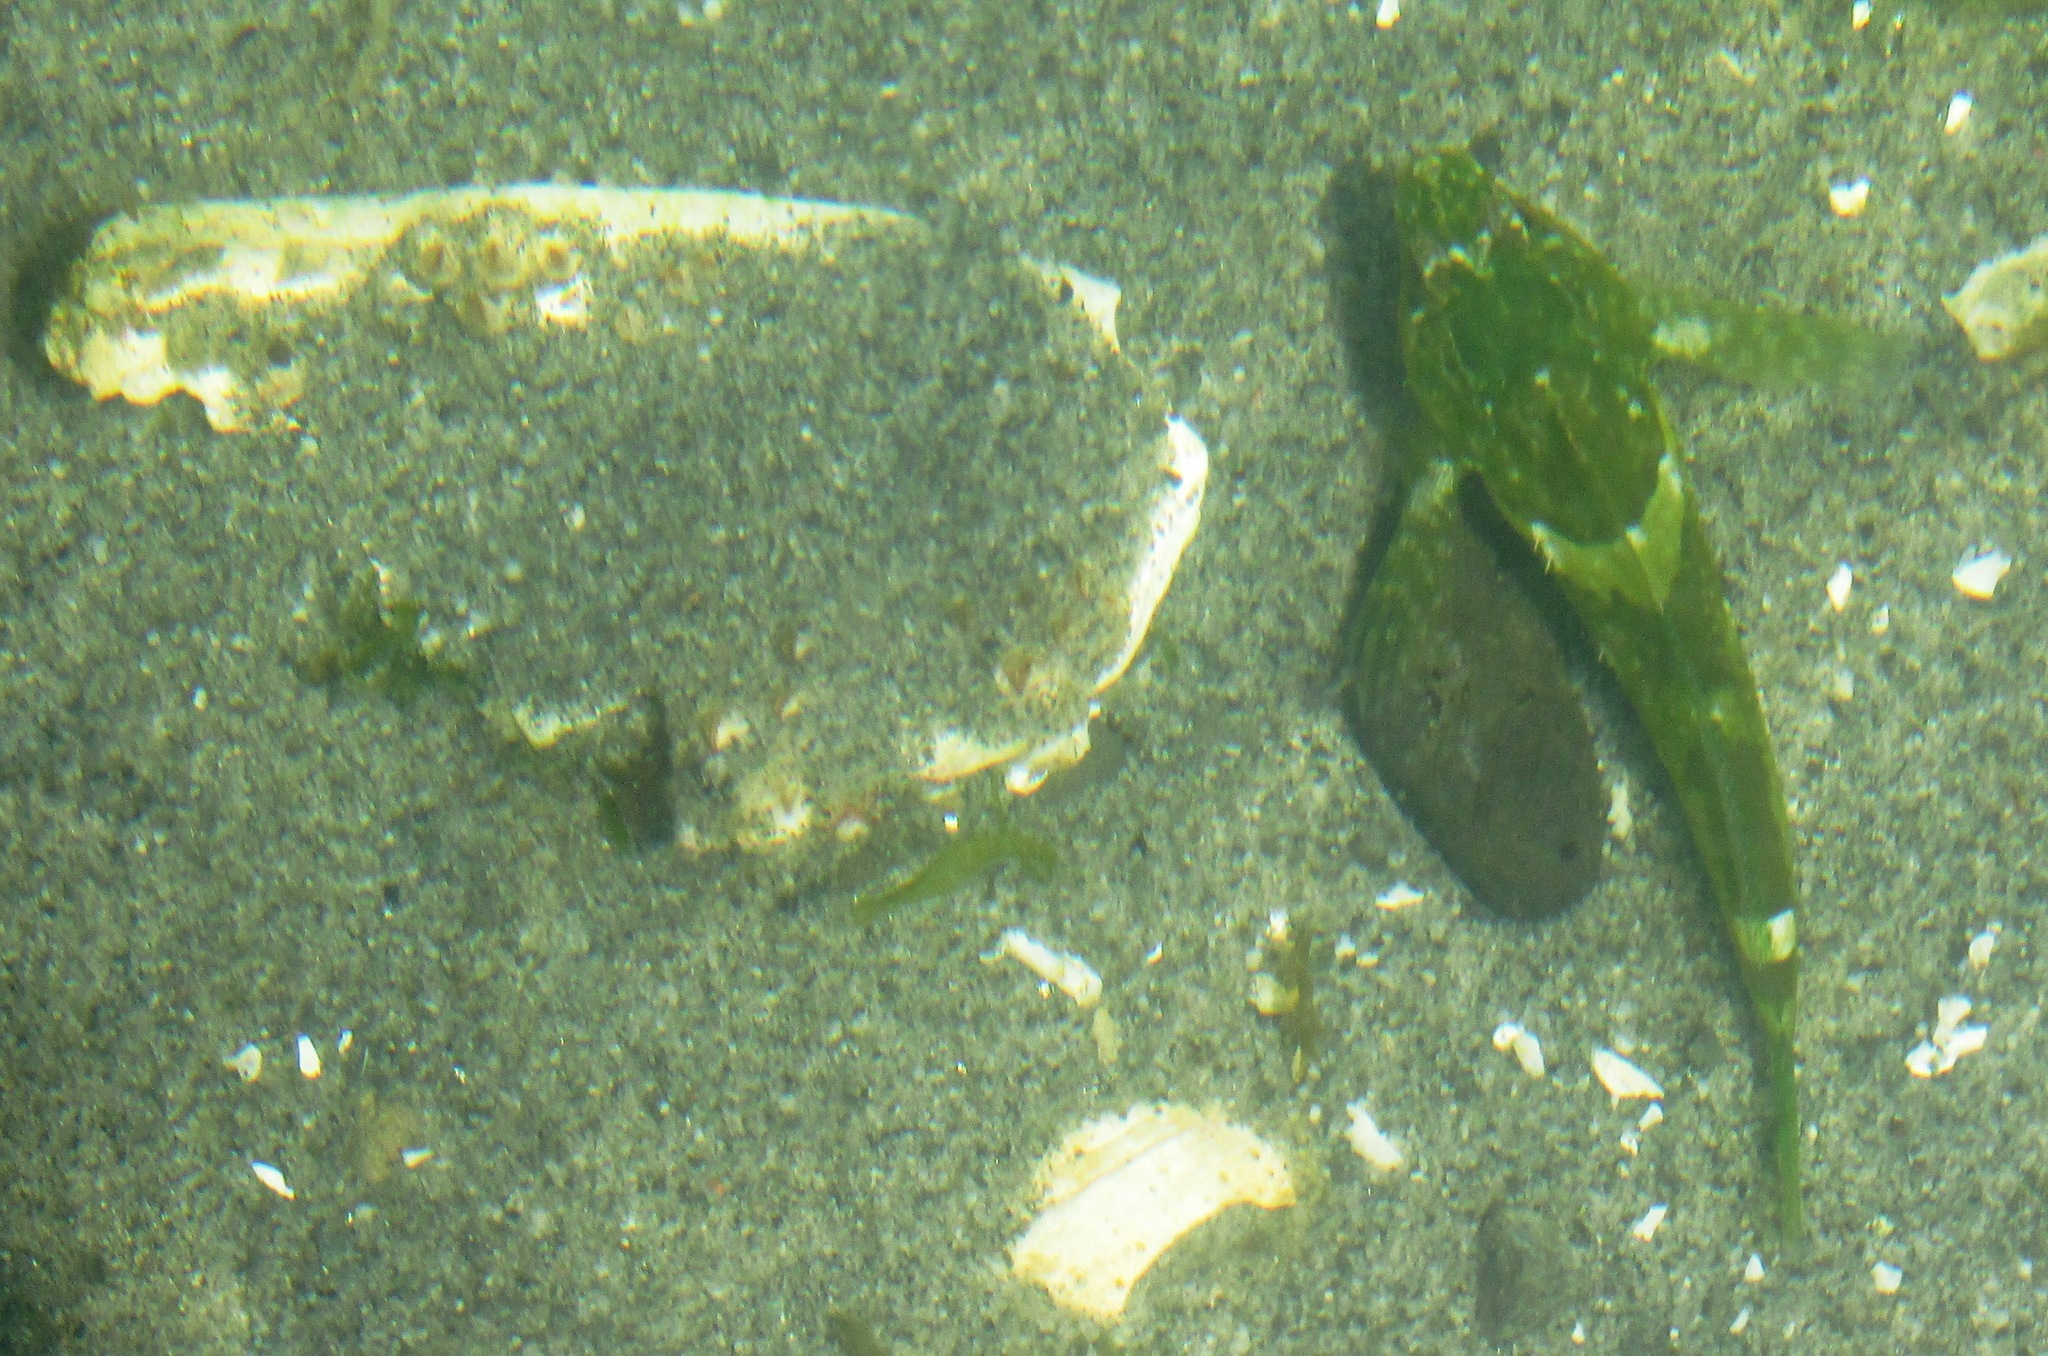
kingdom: Animalia
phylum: Chordata
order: Scorpaeniformes
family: Cottidae
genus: Oligocottus
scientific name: Oligocottus maculosus
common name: Tidepool sculpin
